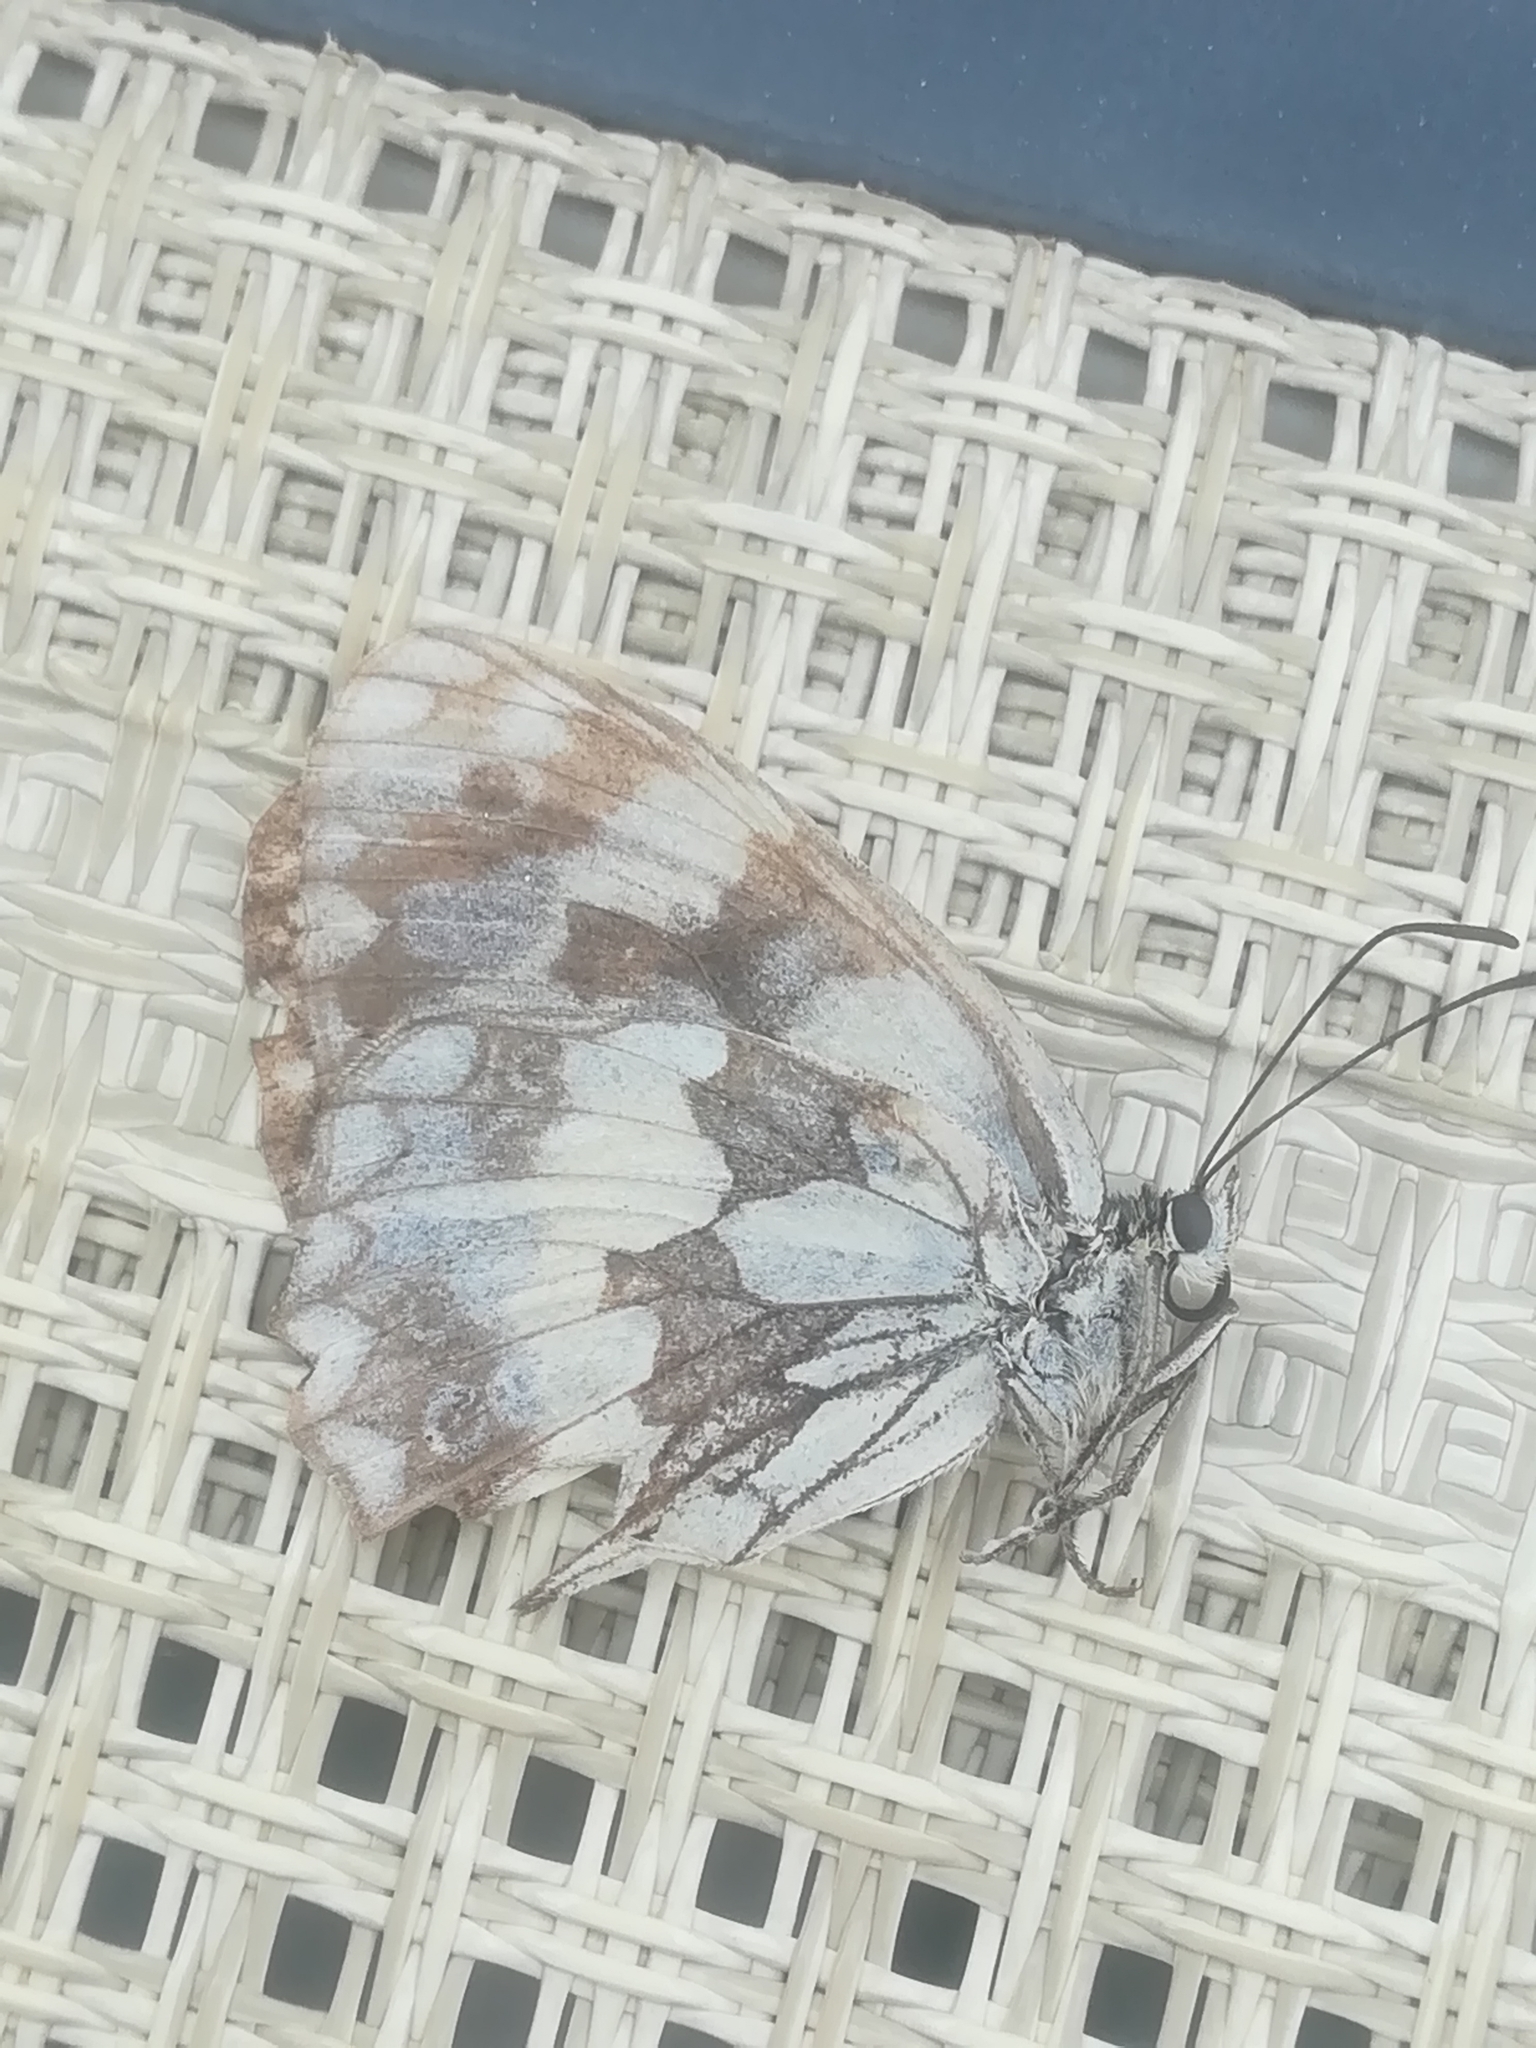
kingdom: Animalia
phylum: Arthropoda
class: Insecta
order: Lepidoptera
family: Nymphalidae
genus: Melanargia
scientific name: Melanargia galathea
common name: Marbled white
